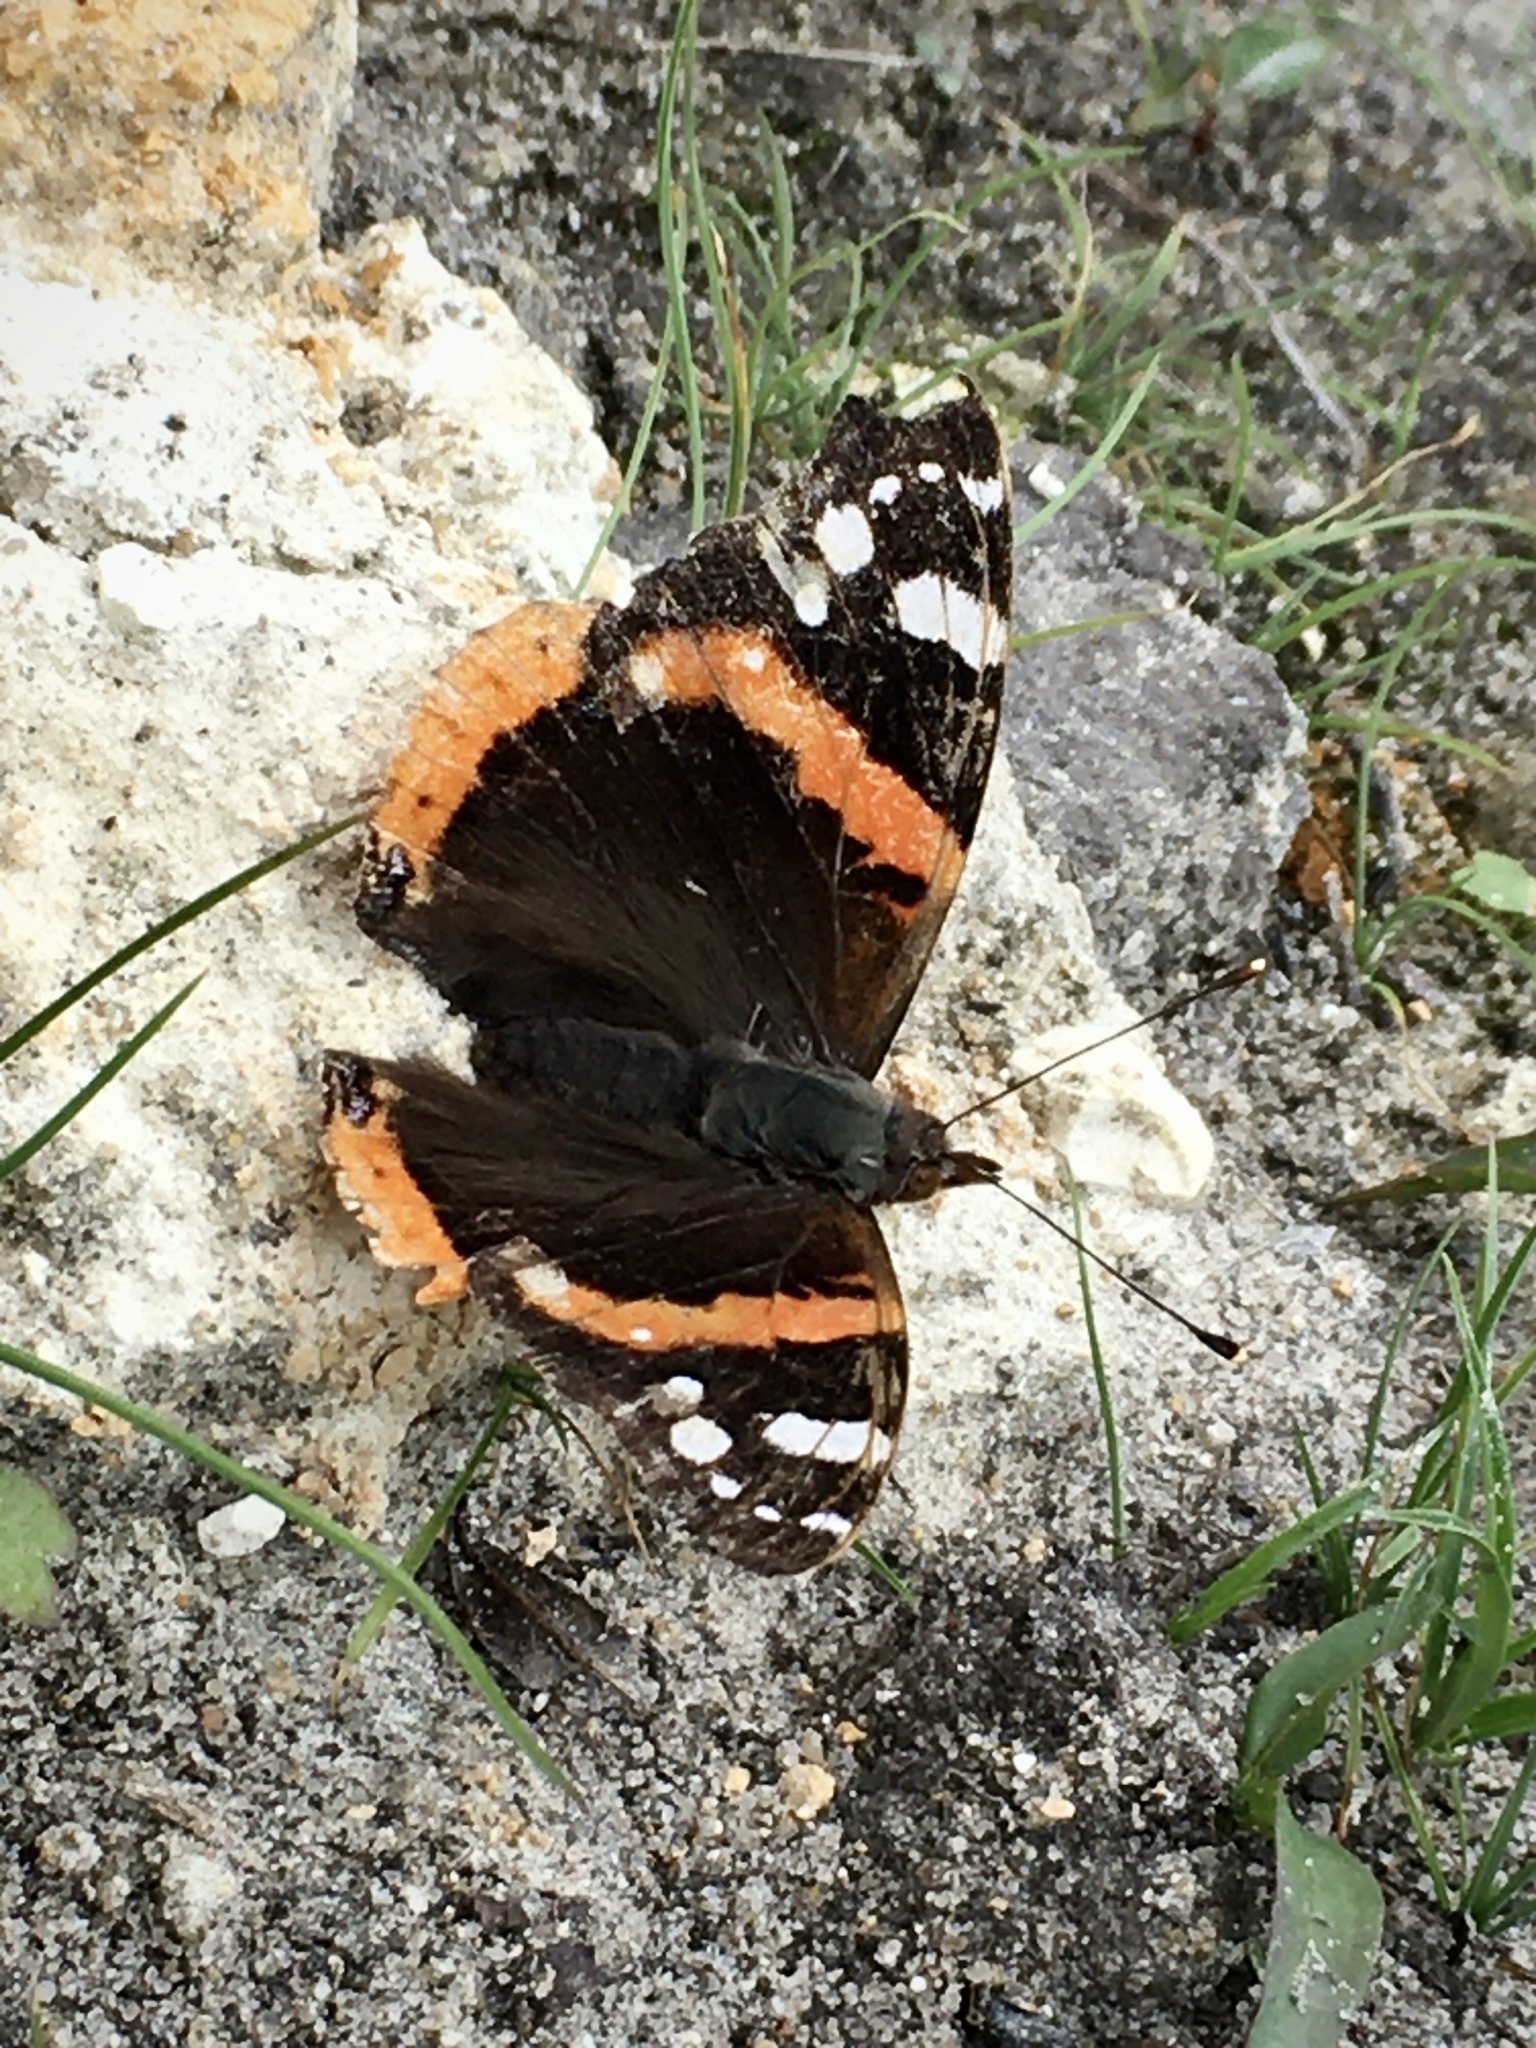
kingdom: Animalia
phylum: Arthropoda
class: Insecta
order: Lepidoptera
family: Nymphalidae
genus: Vanessa
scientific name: Vanessa atalanta
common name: Red admiral
